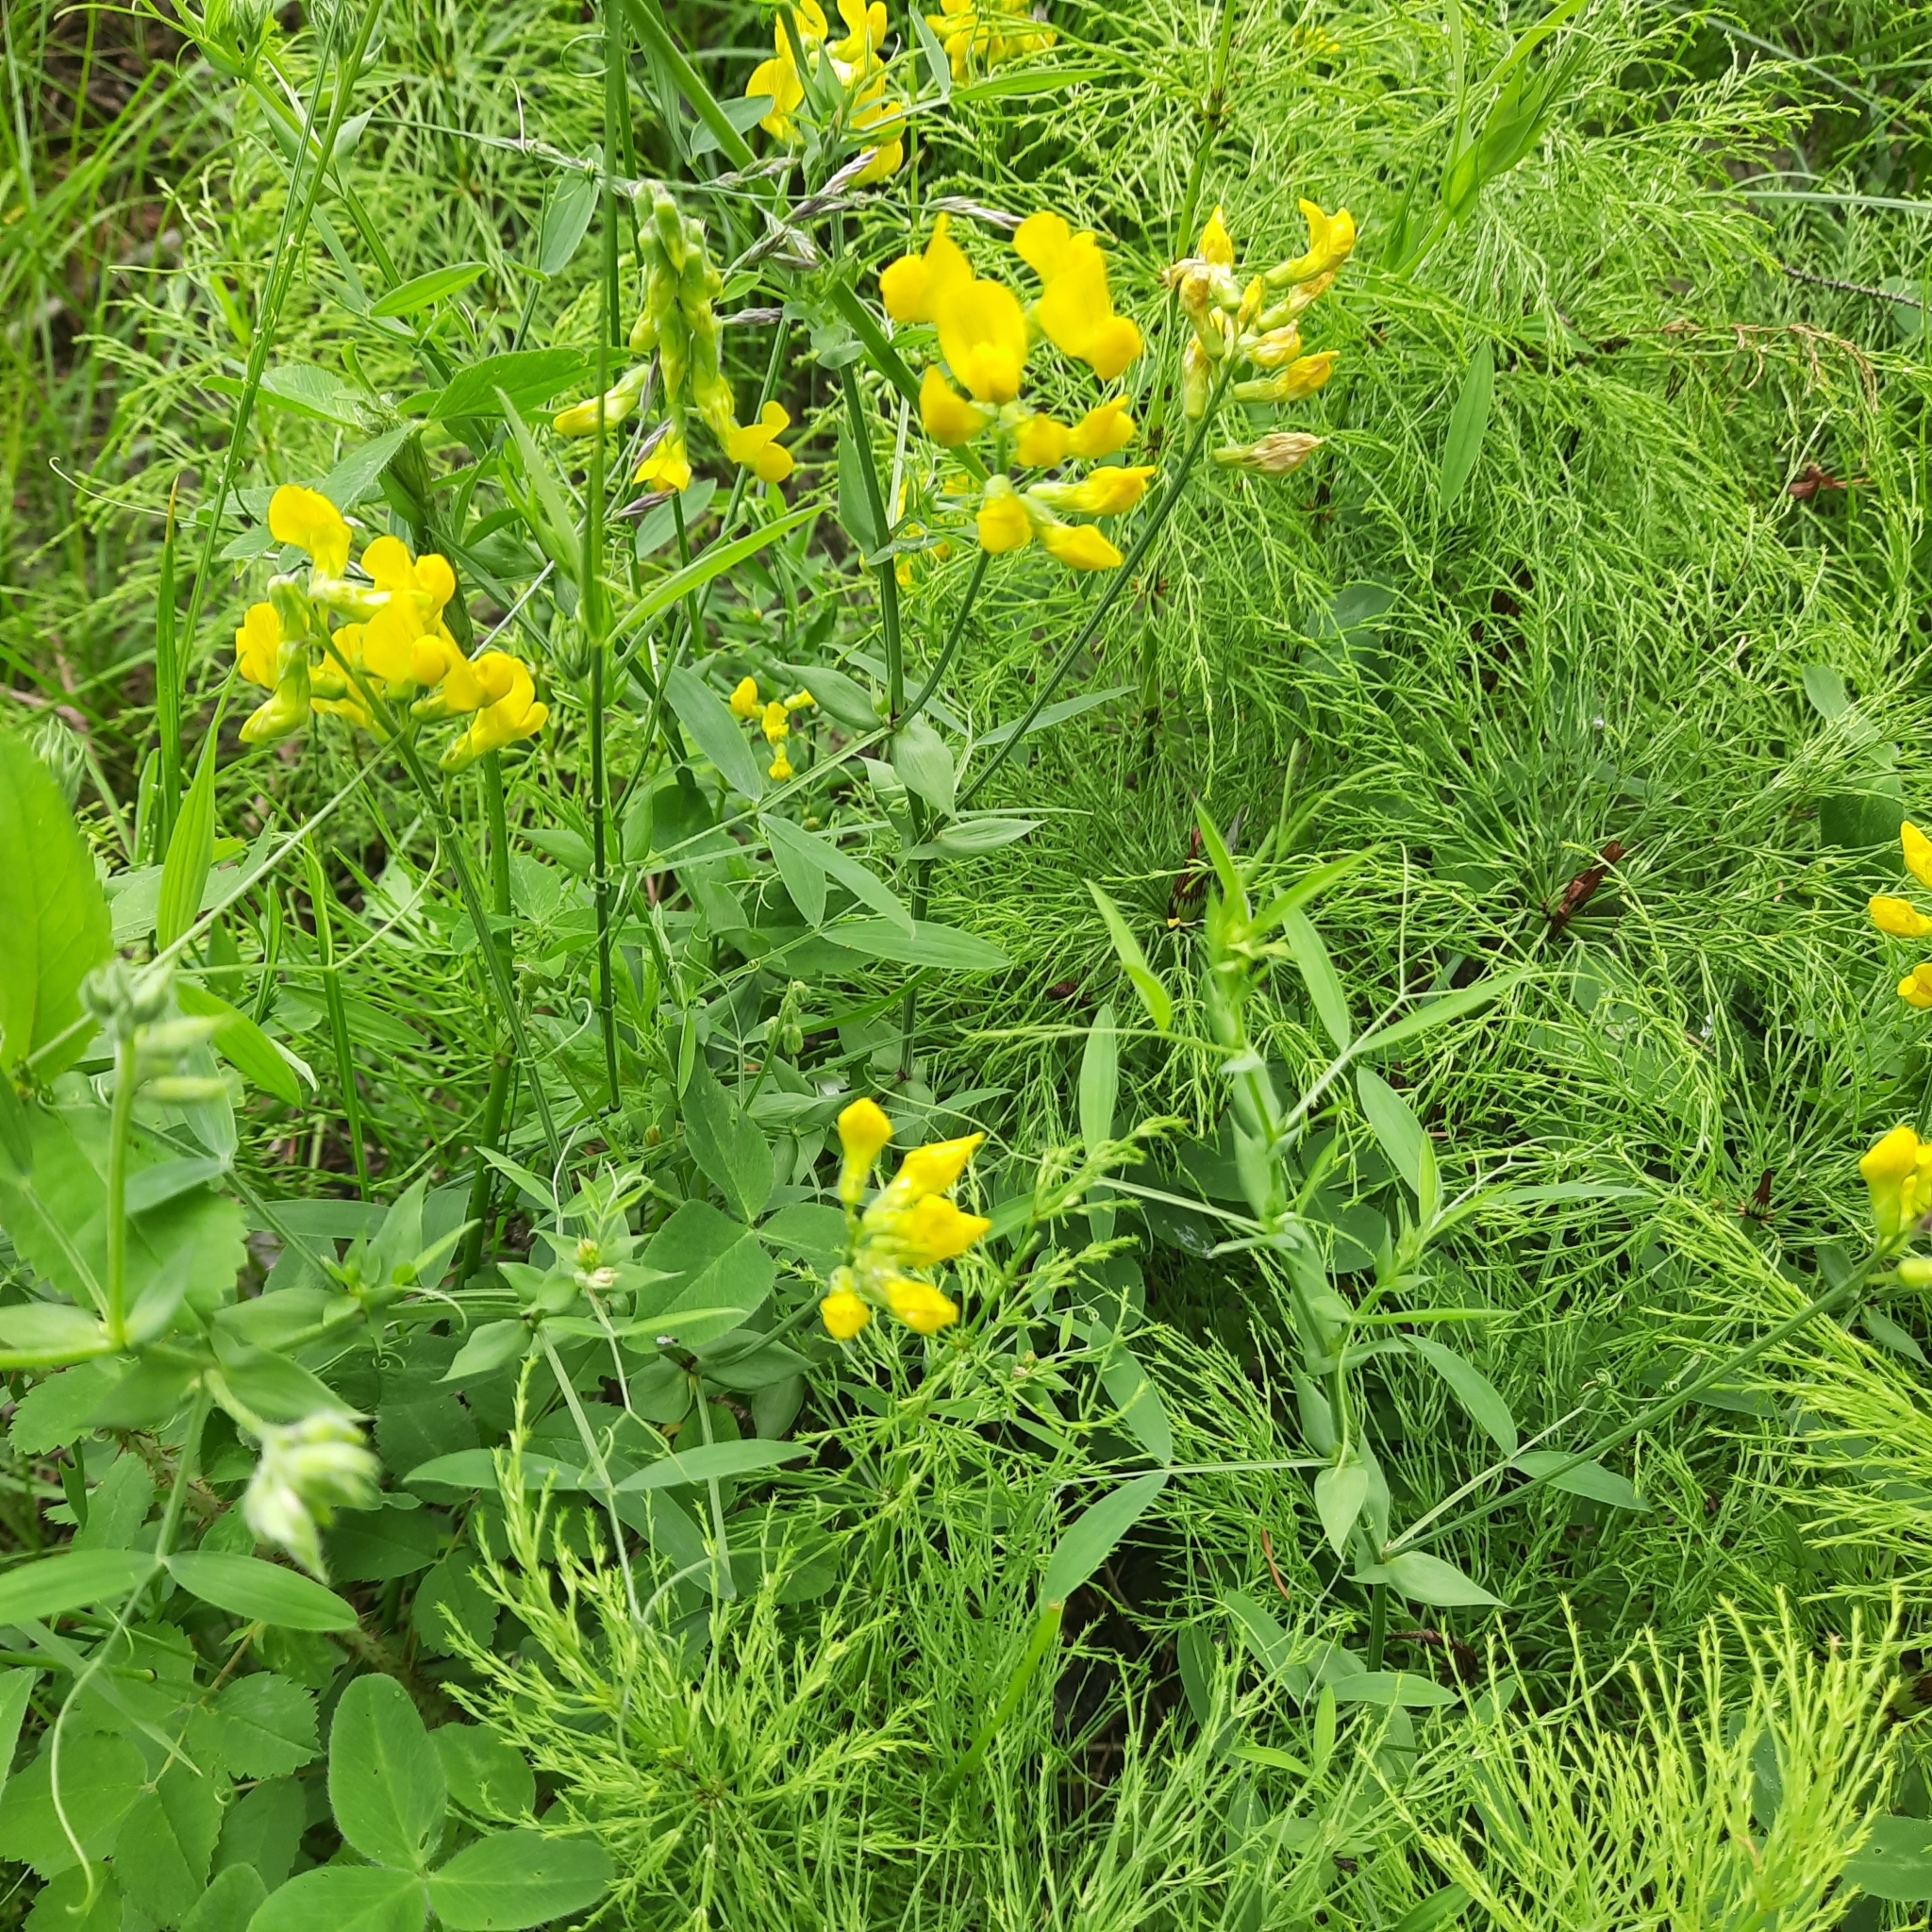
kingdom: Plantae
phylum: Tracheophyta
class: Magnoliopsida
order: Fabales
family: Fabaceae
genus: Lathyrus
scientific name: Lathyrus pratensis
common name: Meadow vetchling
